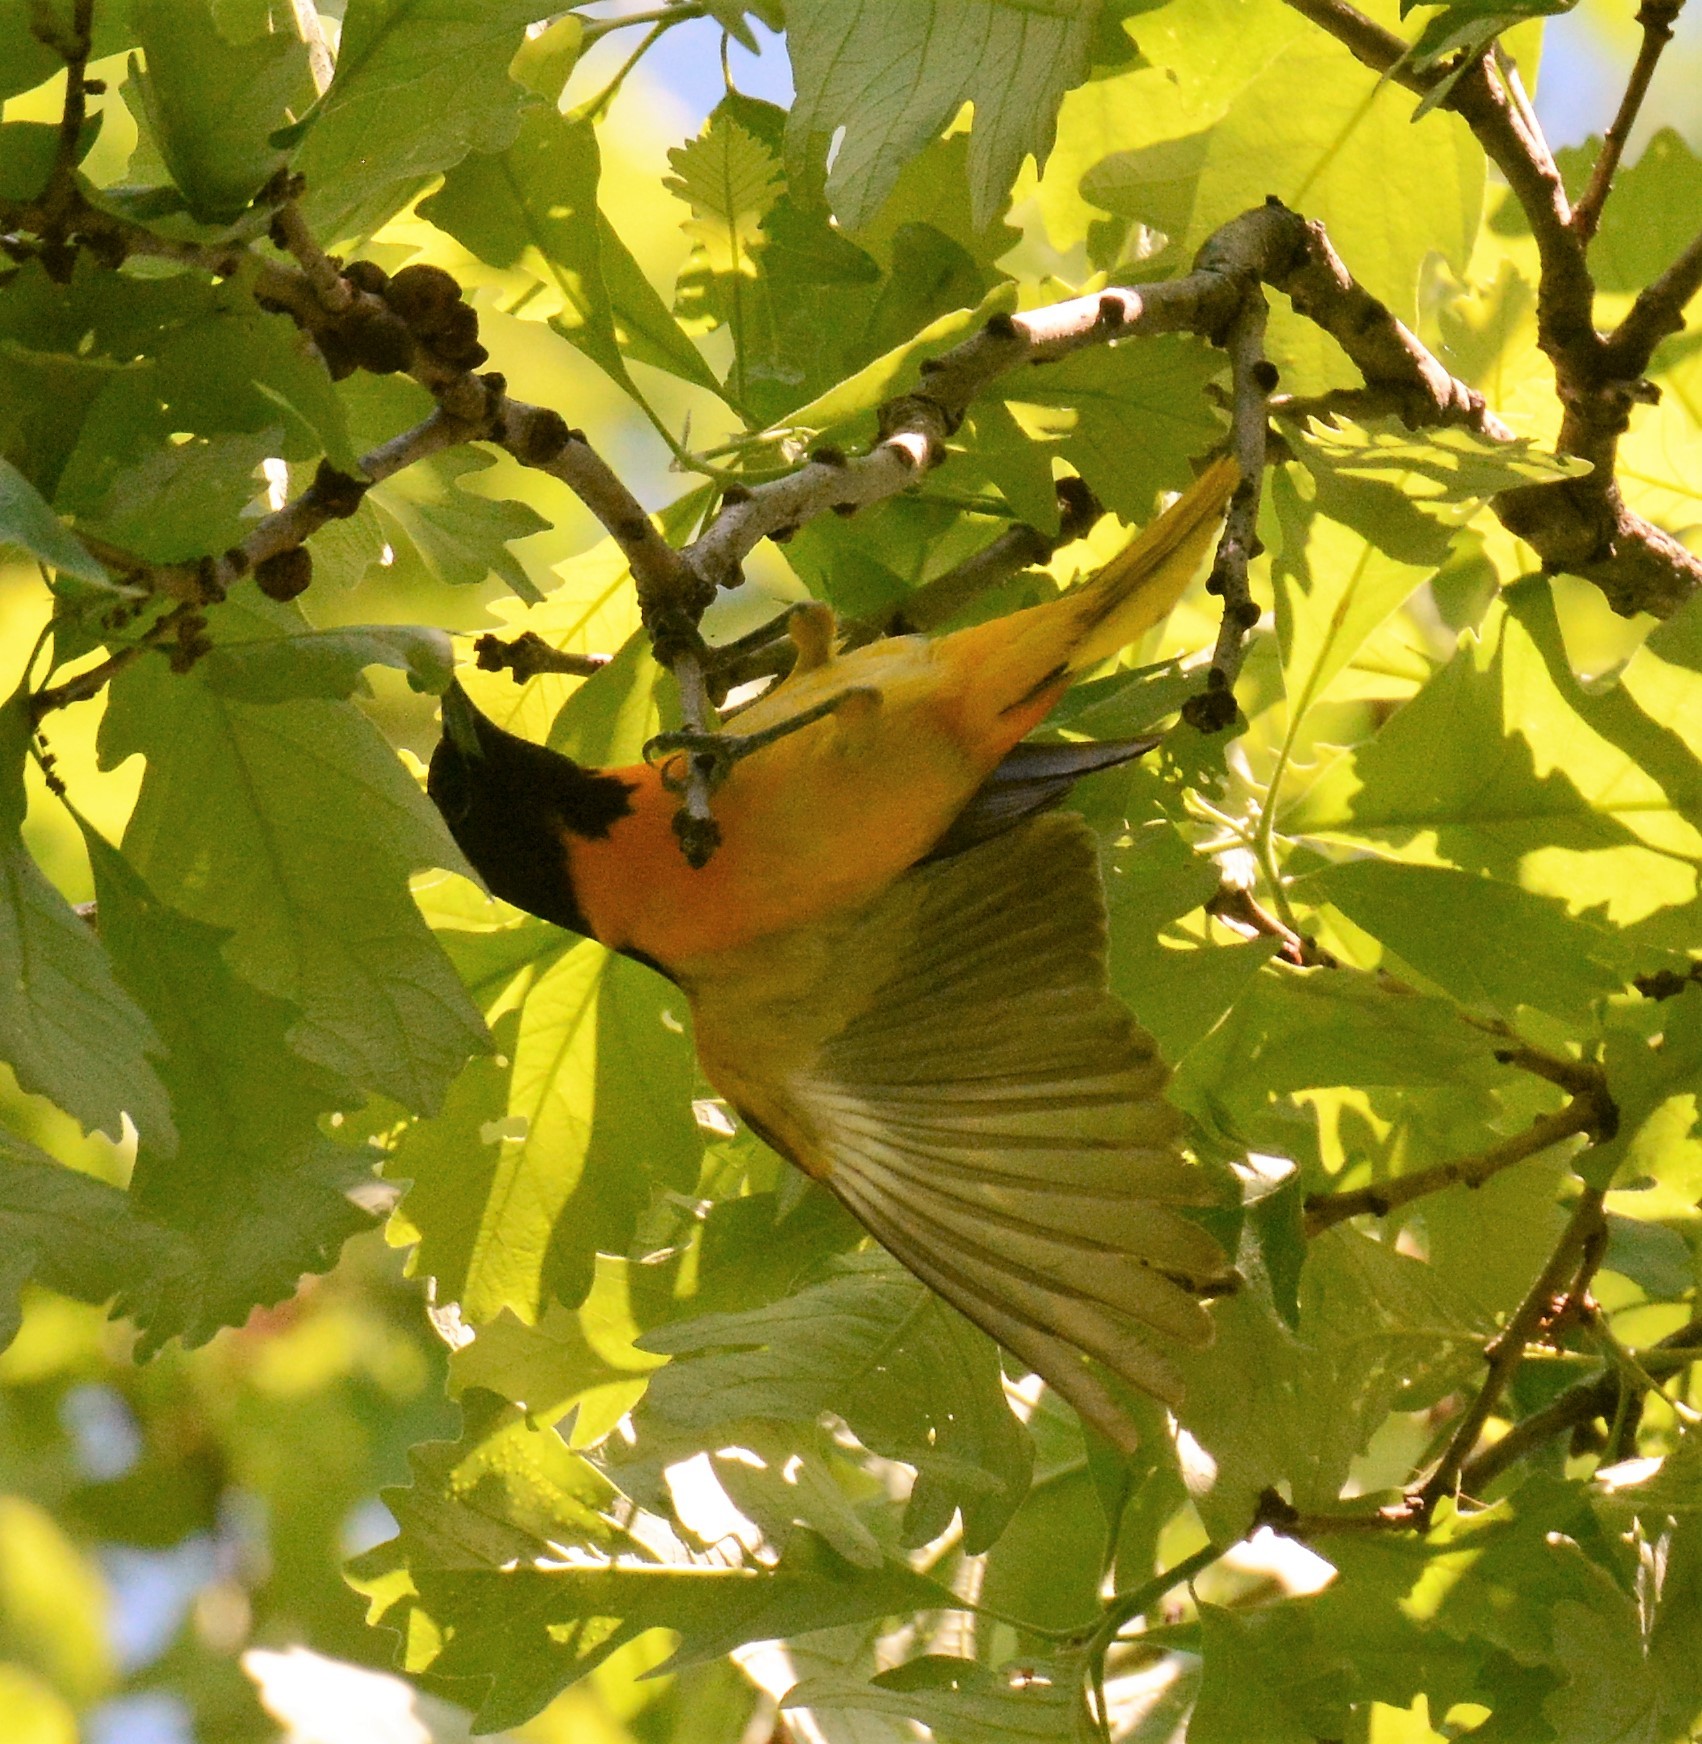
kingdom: Animalia
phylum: Chordata
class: Aves
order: Passeriformes
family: Icteridae
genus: Icterus
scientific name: Icterus galbula
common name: Baltimore oriole
